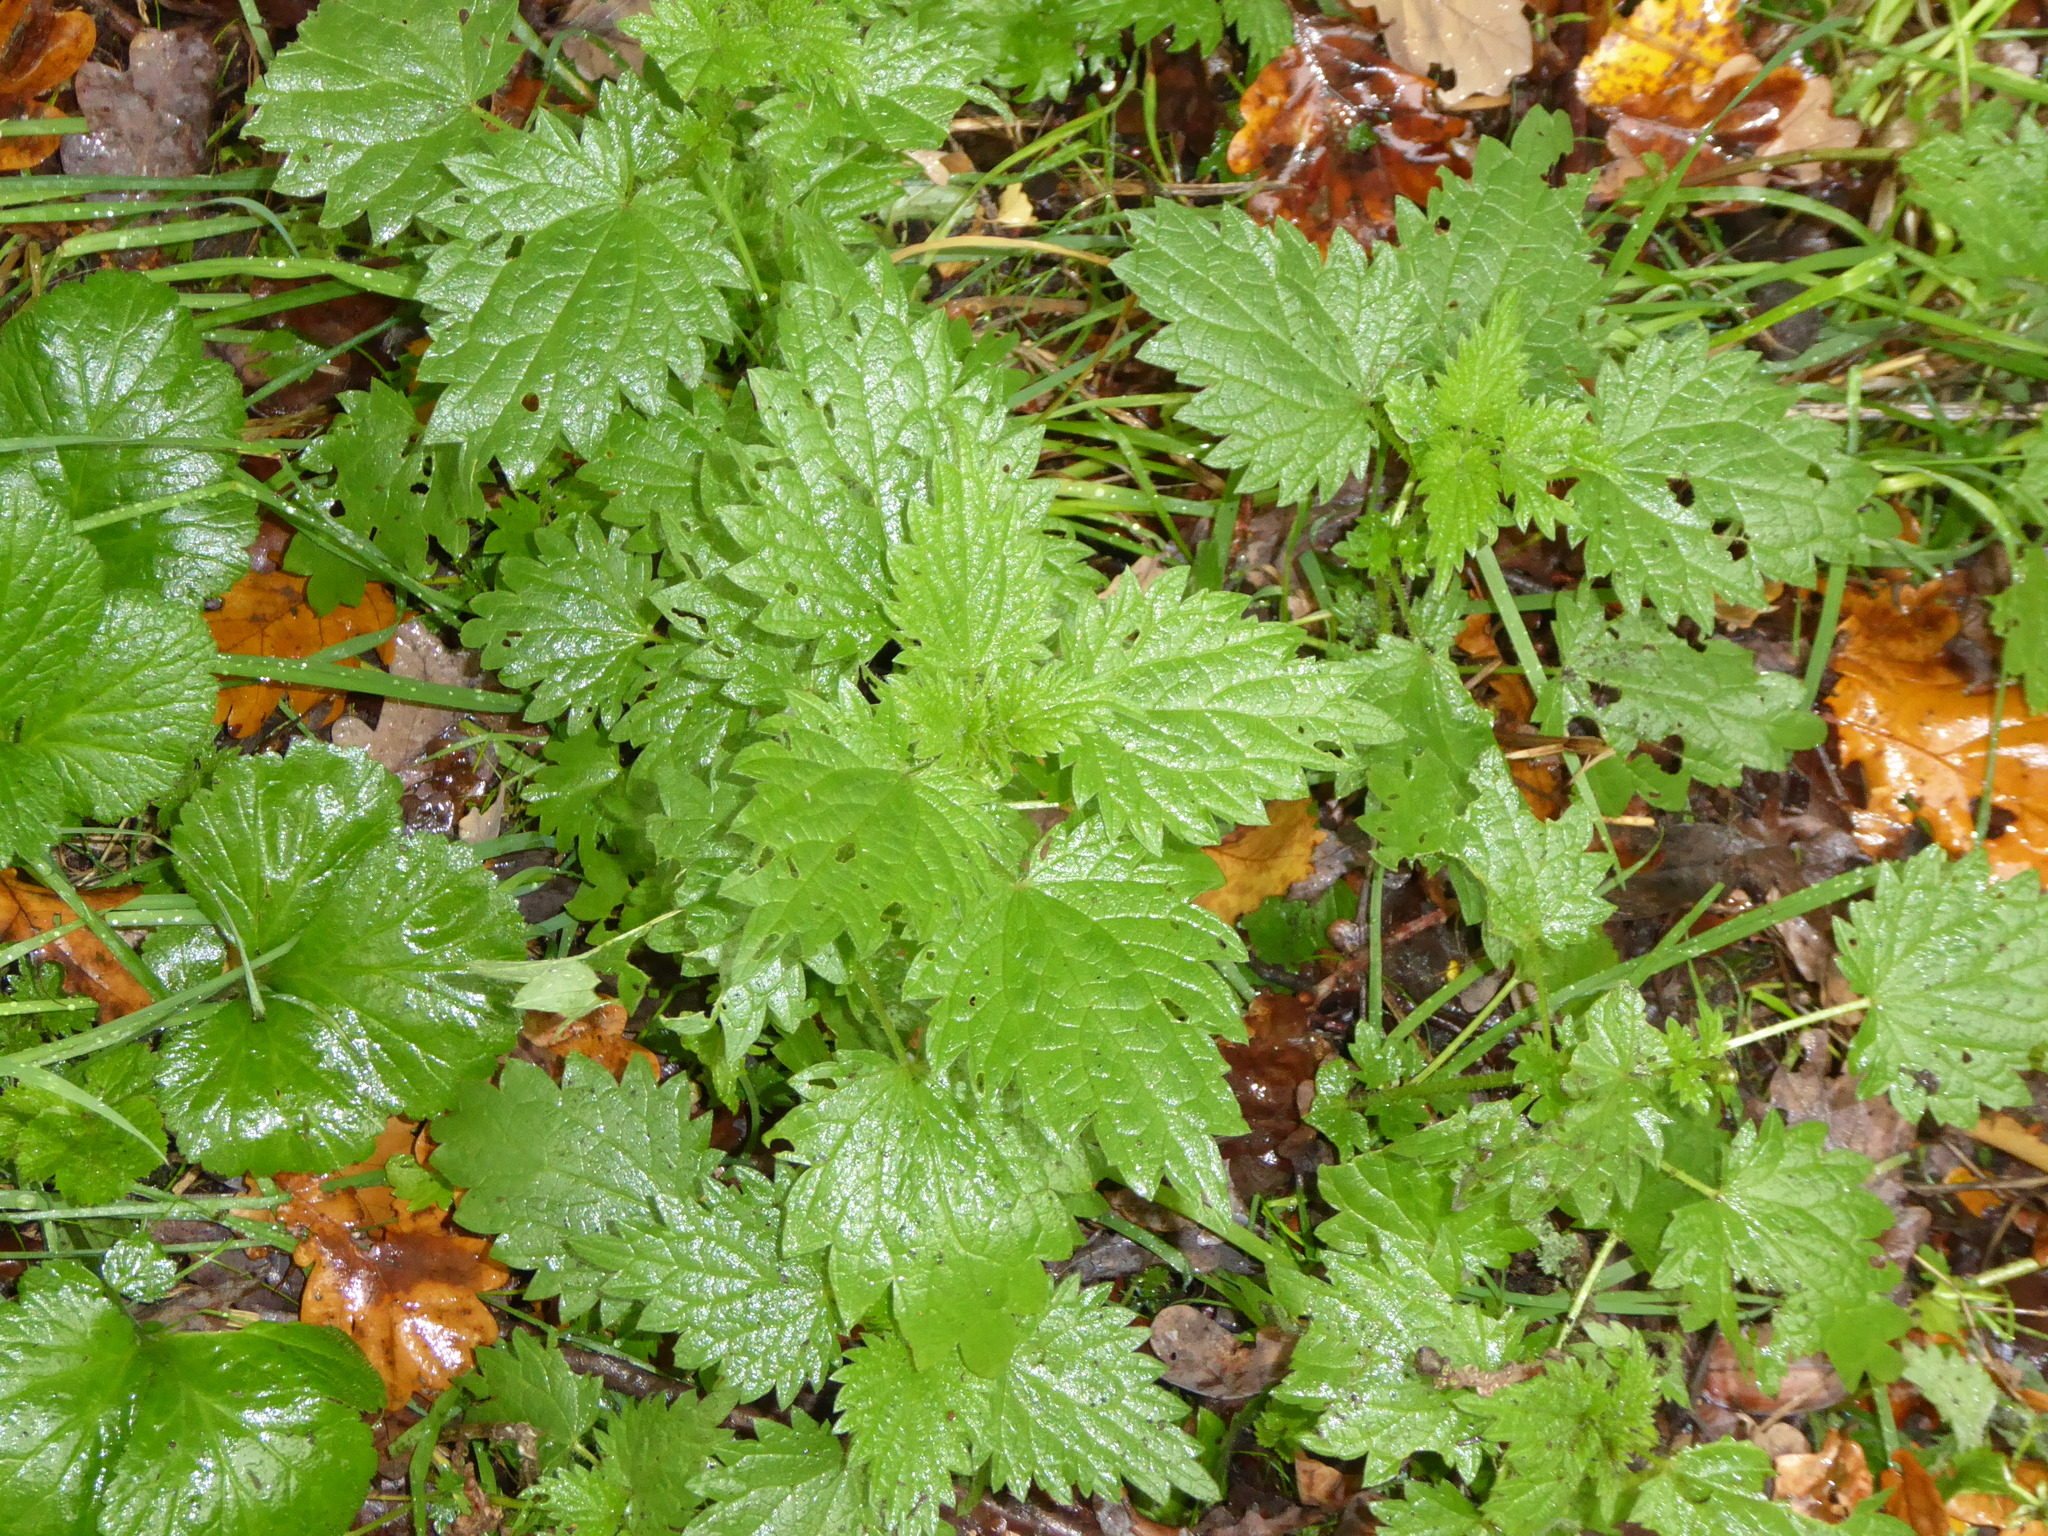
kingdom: Plantae
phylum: Tracheophyta
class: Magnoliopsida
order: Rosales
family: Urticaceae
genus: Urtica
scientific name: Urtica dioica
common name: Common nettle
